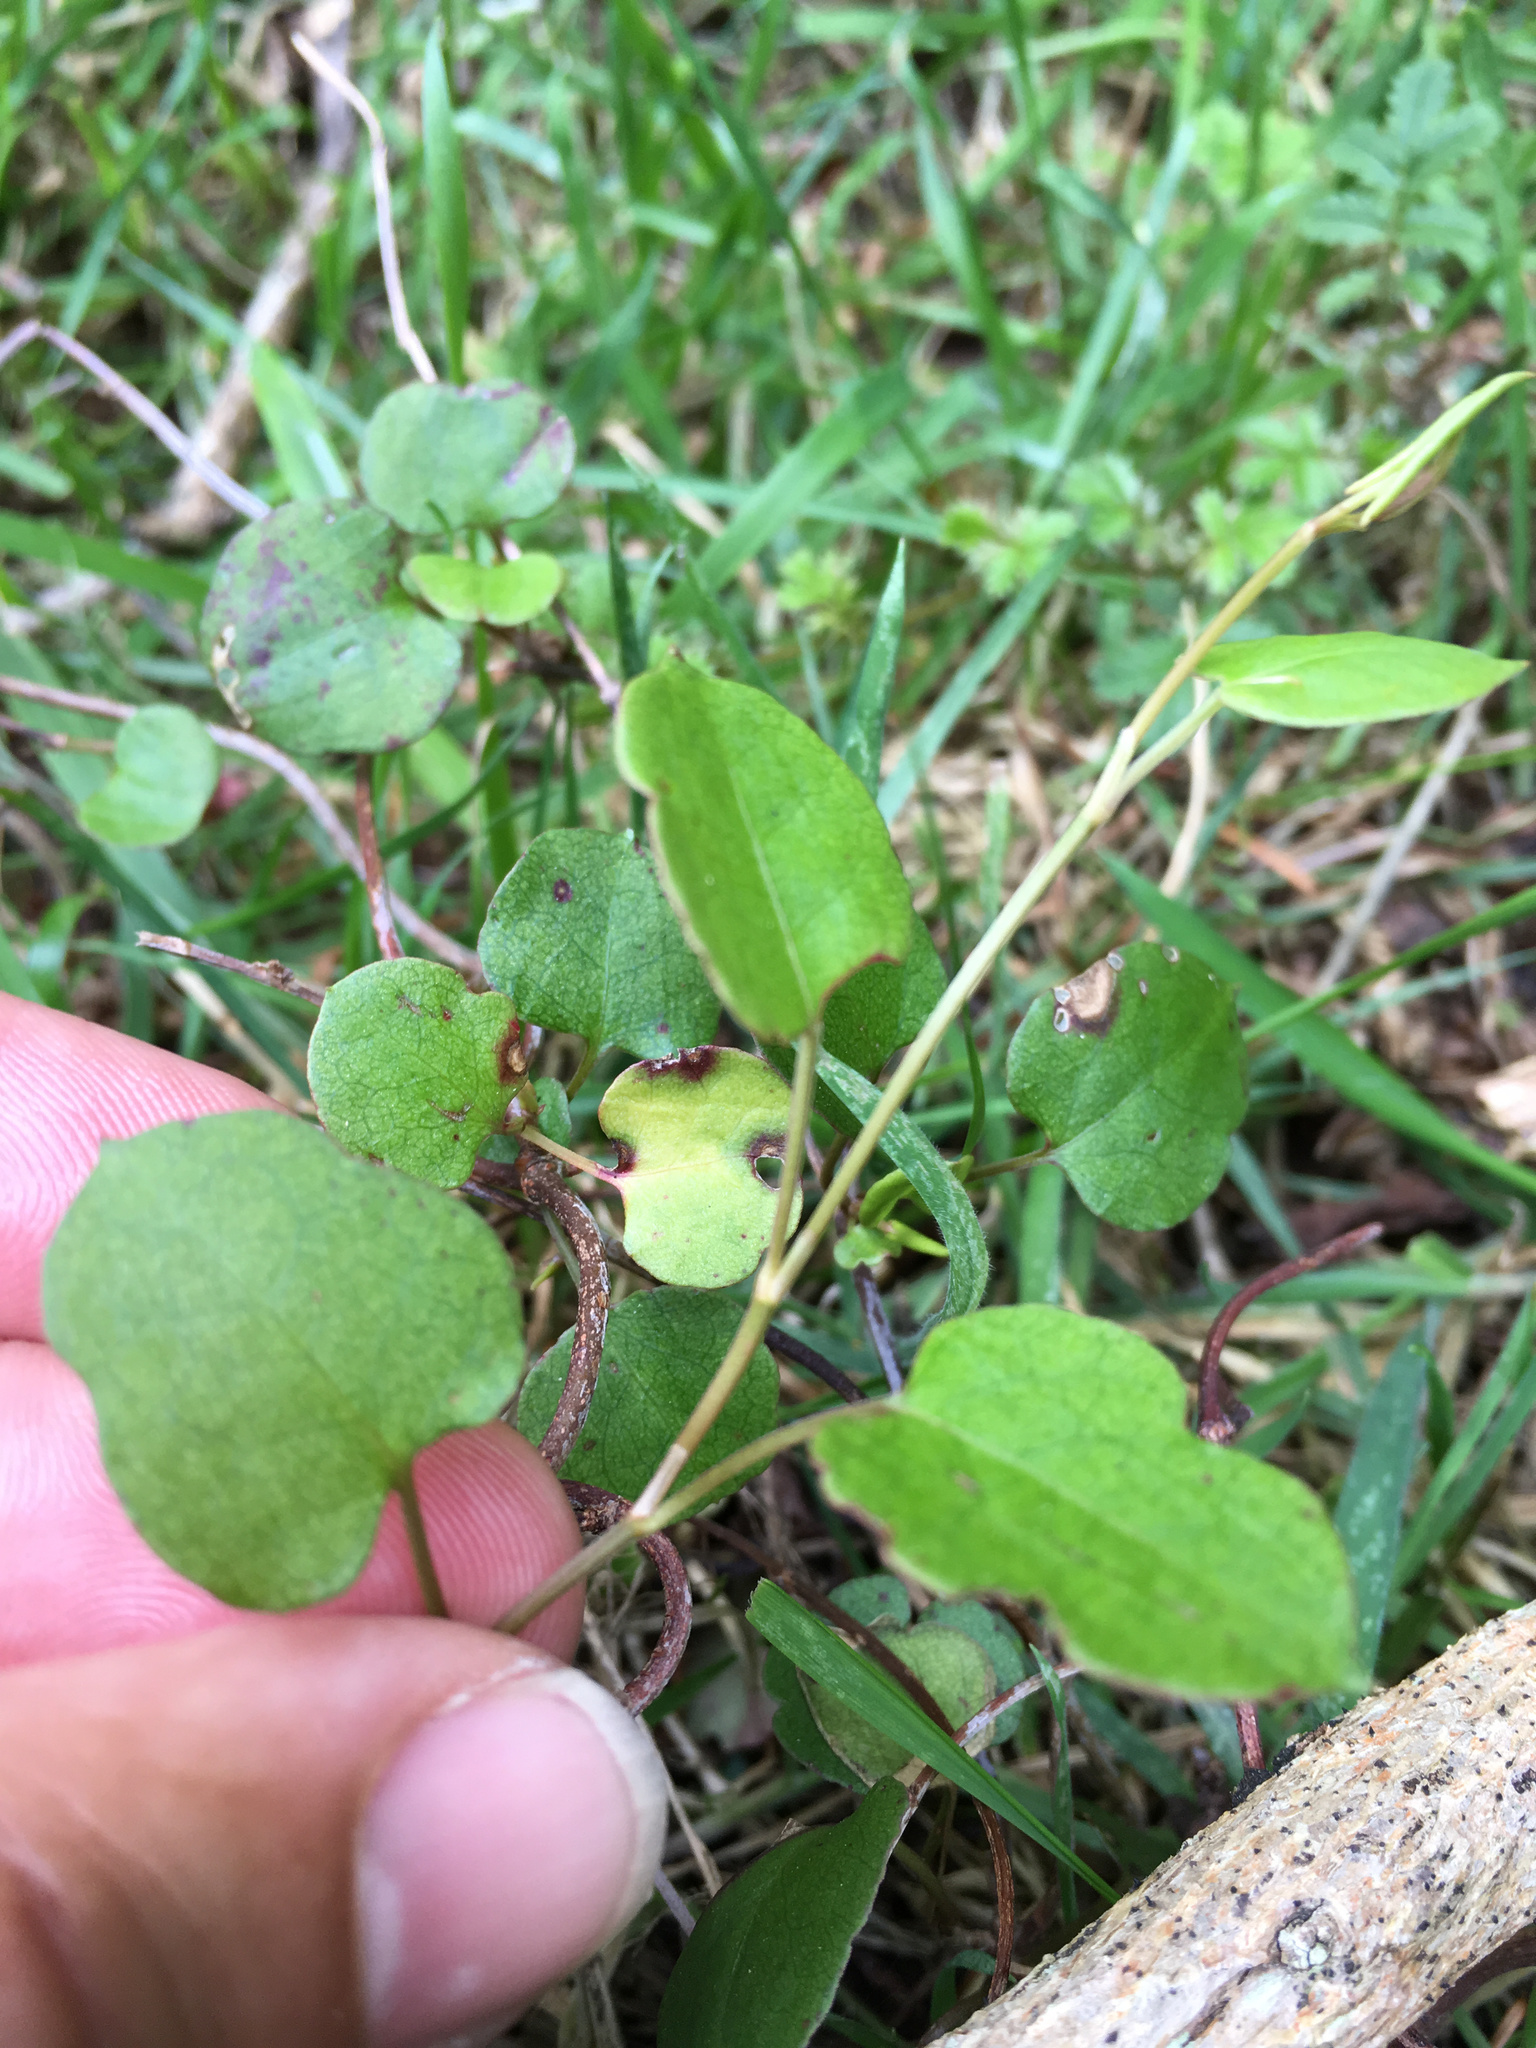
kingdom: Plantae
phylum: Tracheophyta
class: Magnoliopsida
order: Caryophyllales
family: Polygonaceae
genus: Muehlenbeckia
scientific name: Muehlenbeckia australis
